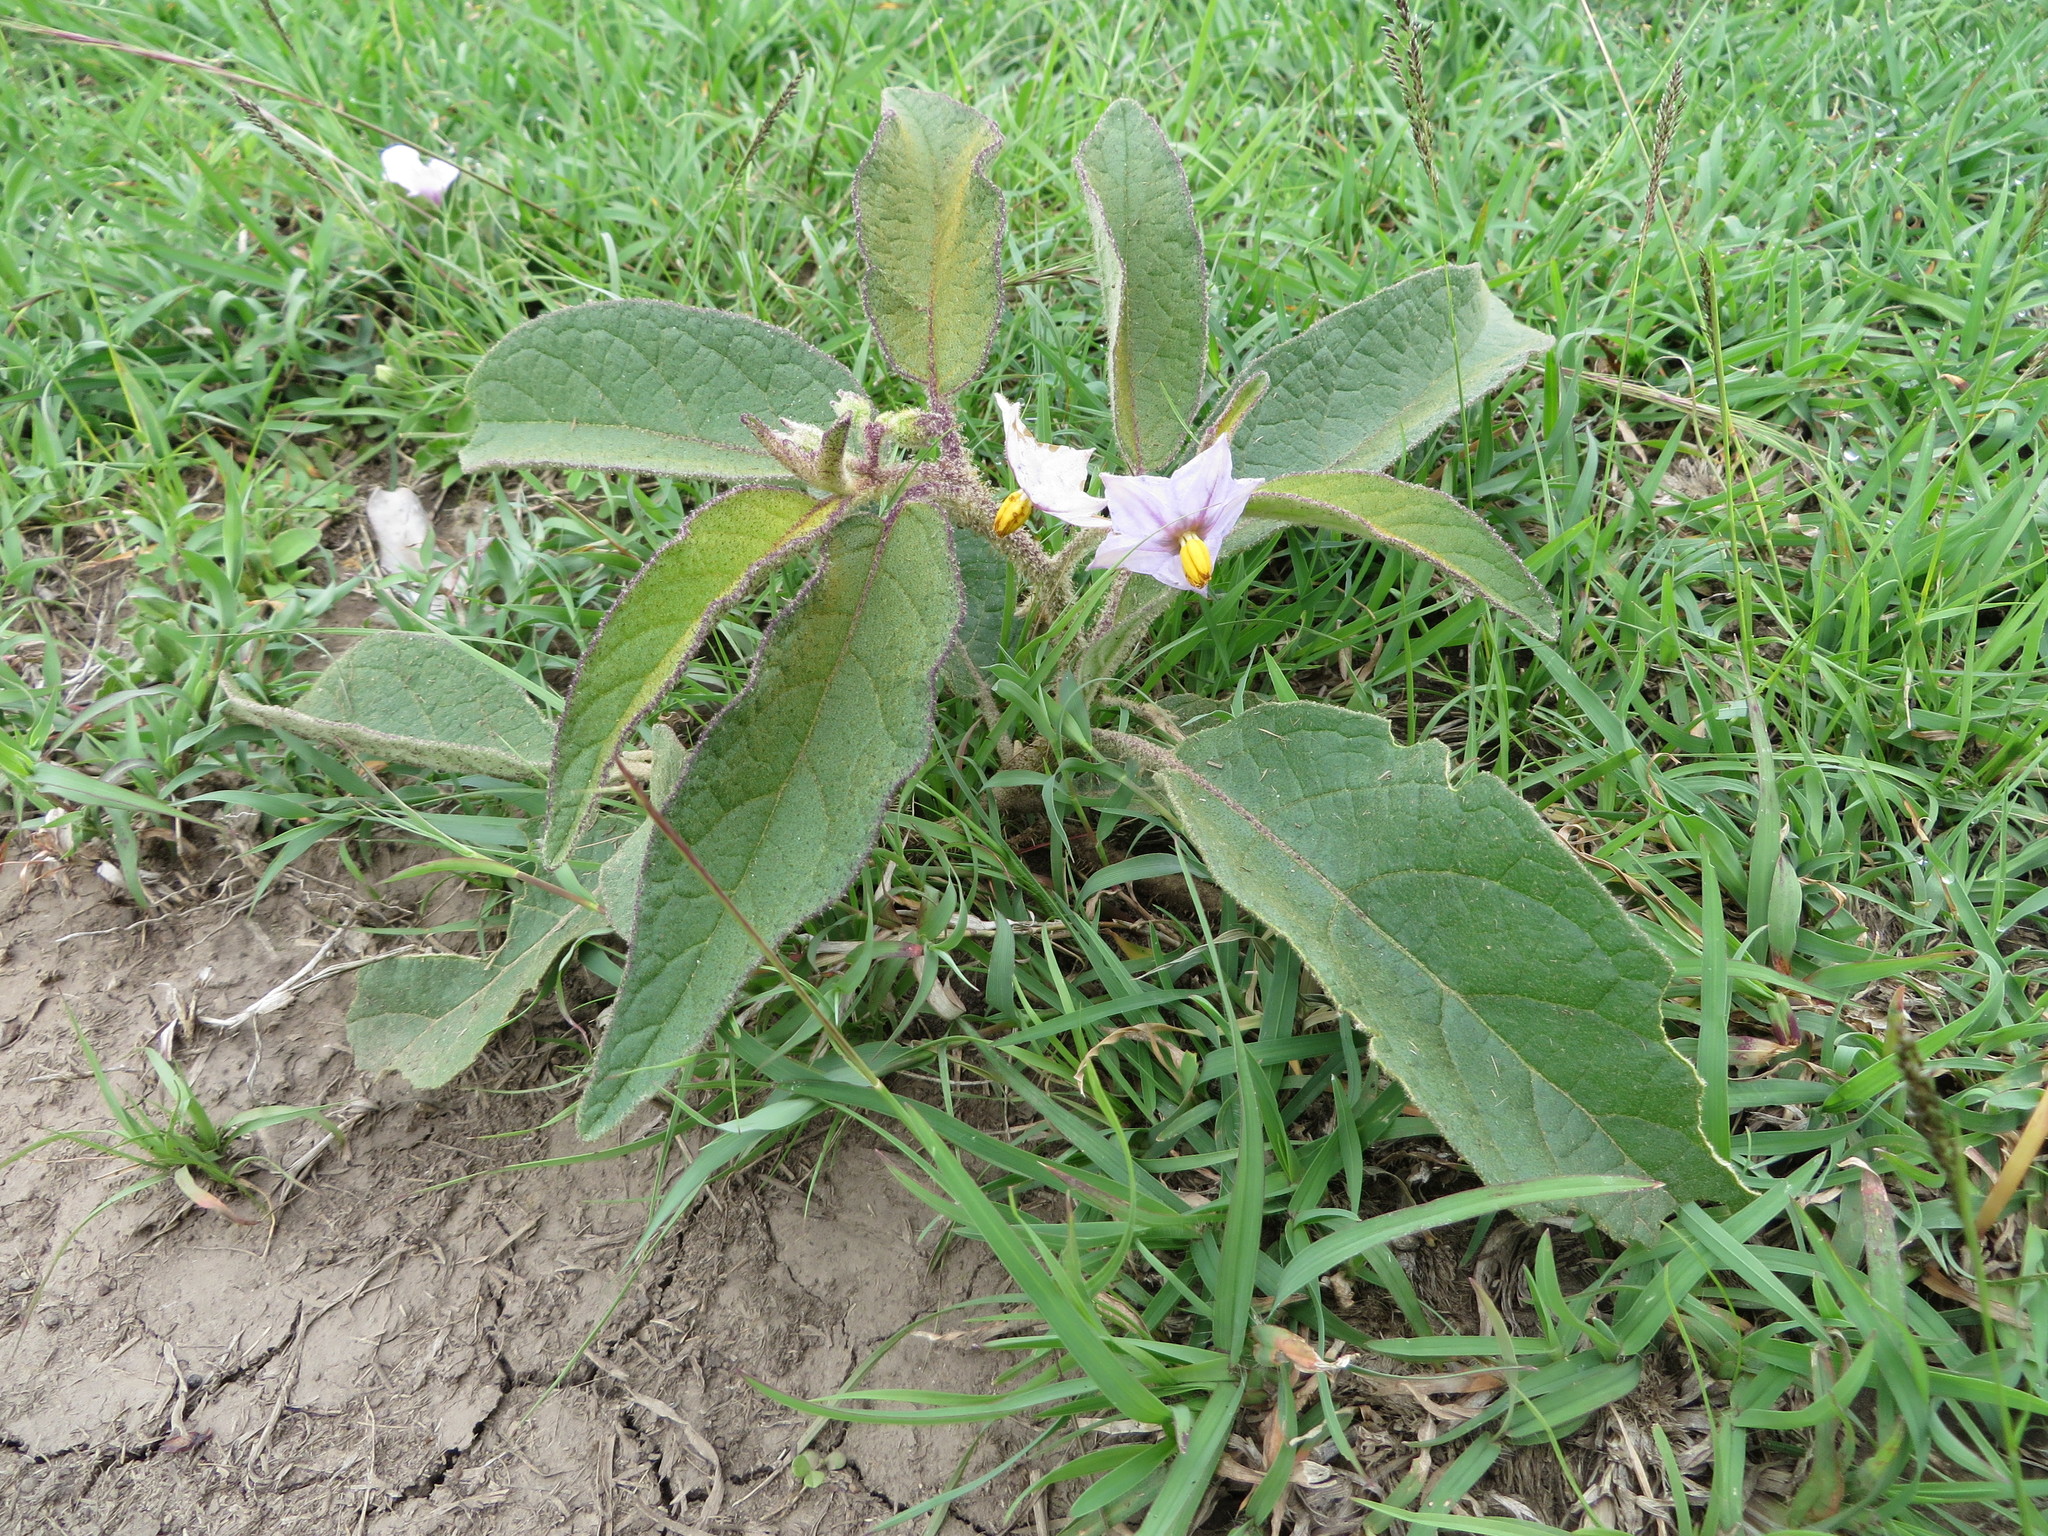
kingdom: Plantae
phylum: Tracheophyta
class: Magnoliopsida
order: Solanales
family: Solanaceae
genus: Solanum
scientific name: Solanum campylacanthum
